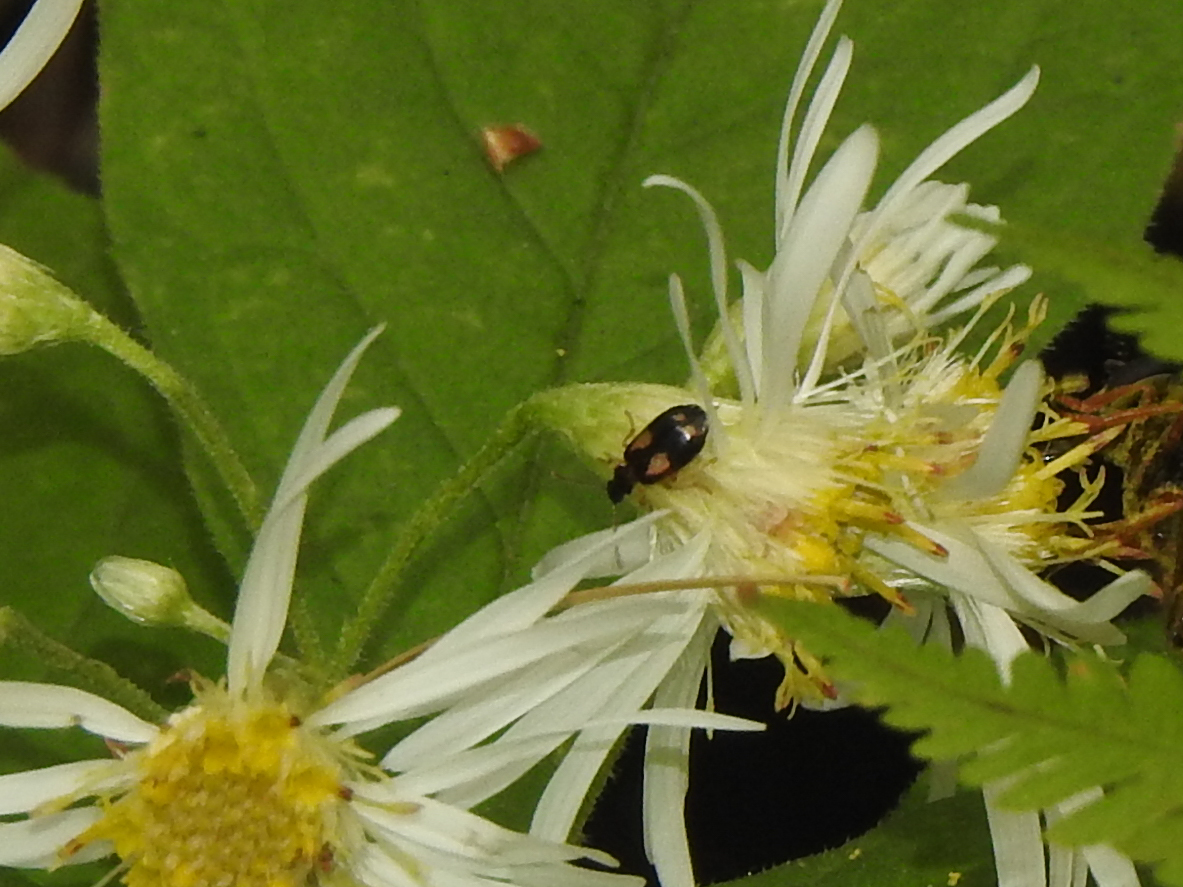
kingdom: Animalia
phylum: Arthropoda
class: Insecta
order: Coleoptera
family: Carabidae
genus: Lebia
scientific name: Lebia ornata
